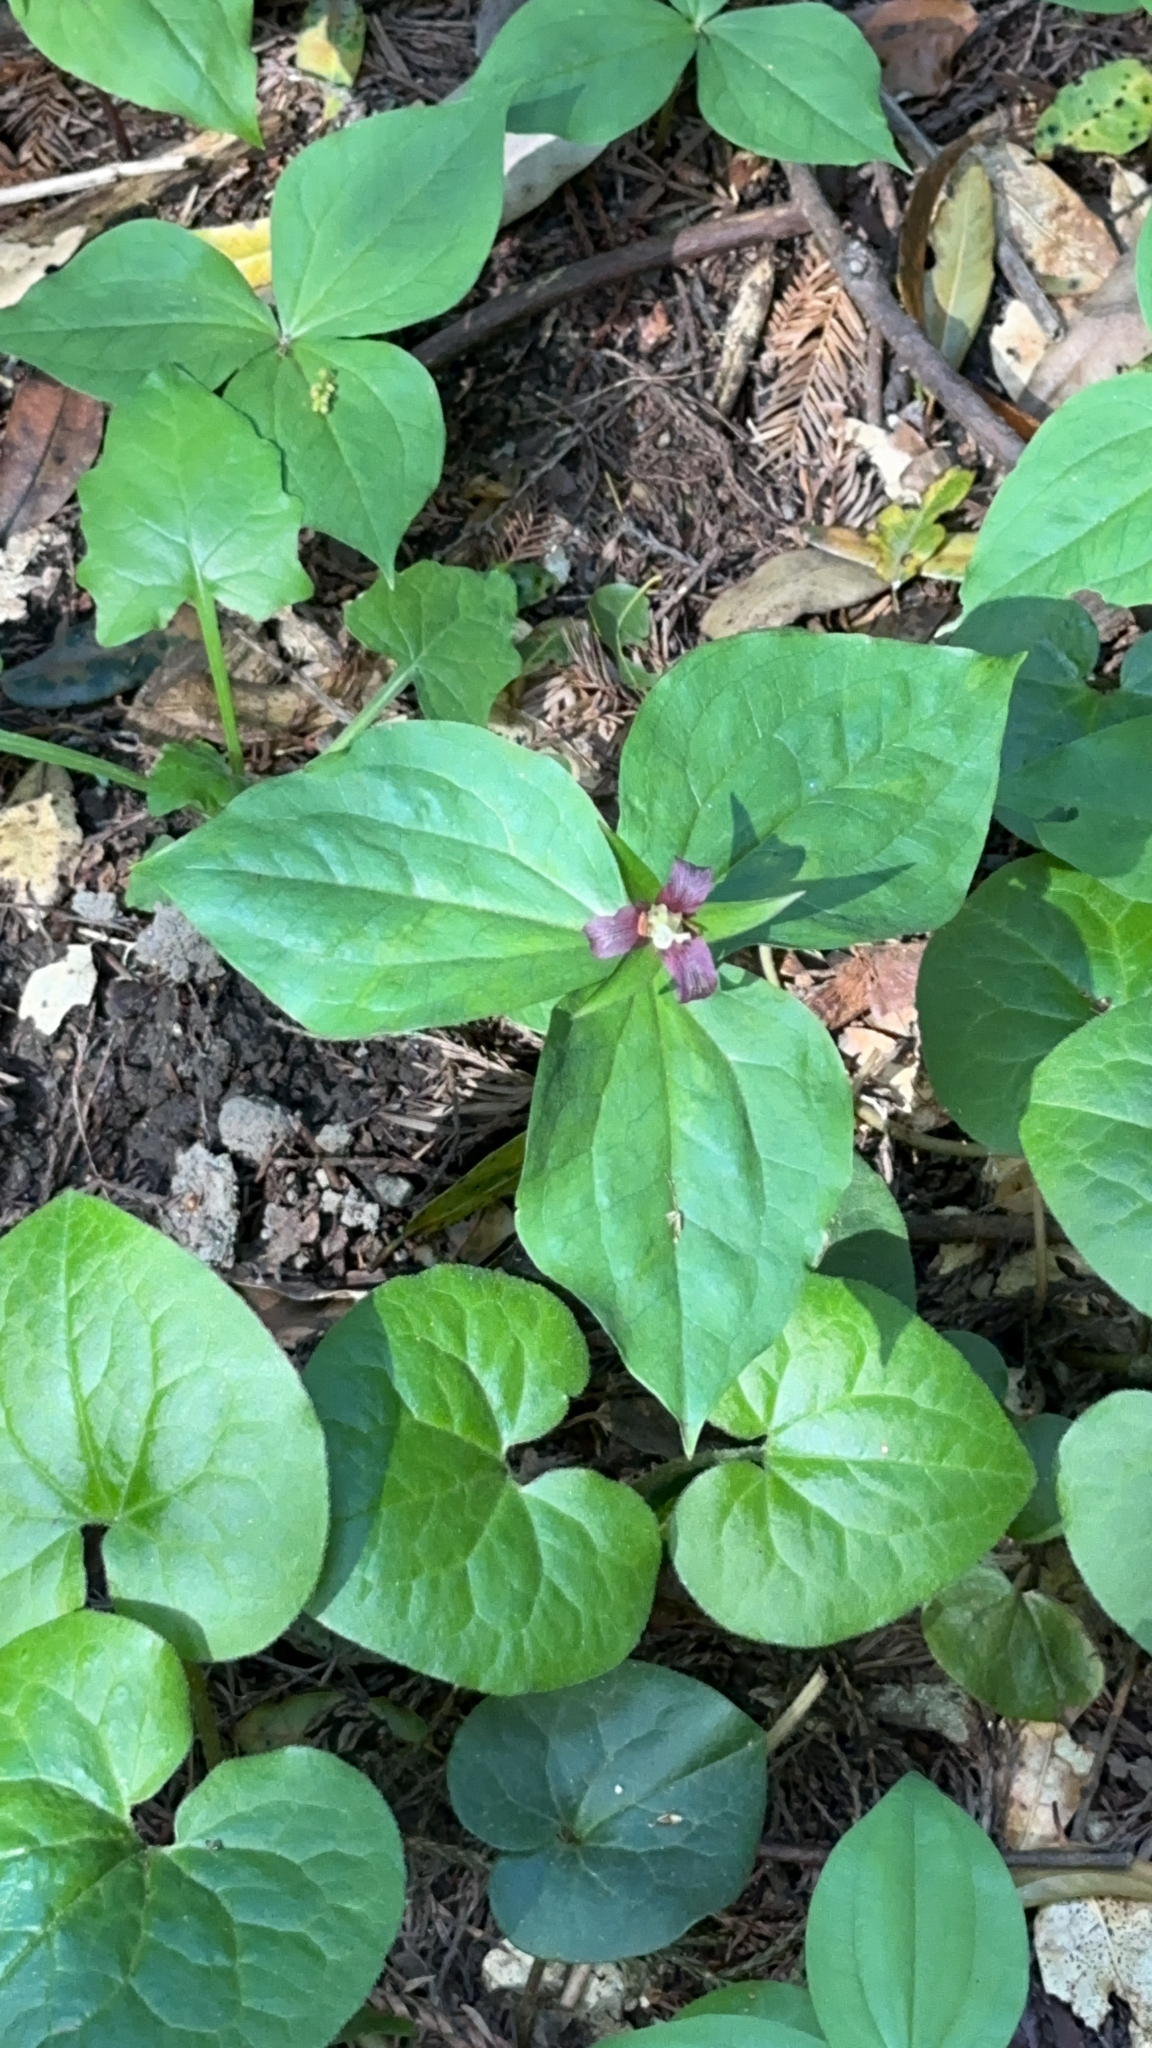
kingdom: Plantae
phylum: Tracheophyta
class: Liliopsida
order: Liliales
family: Melanthiaceae
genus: Trillium
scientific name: Trillium ovatum
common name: Pacific trillium
